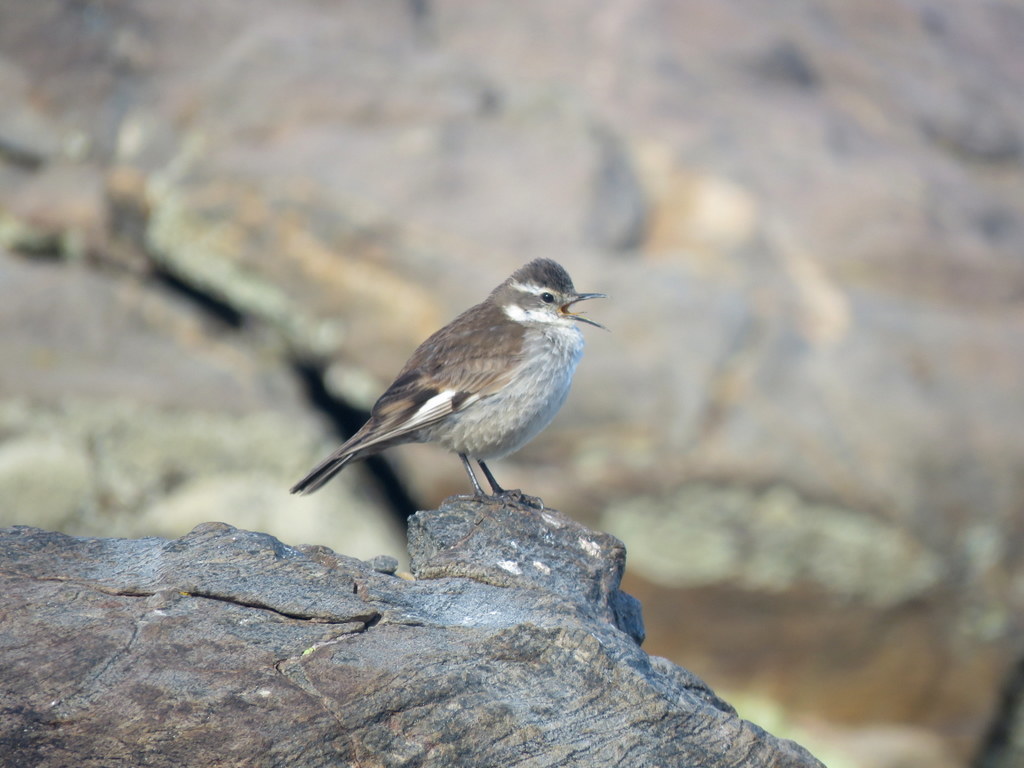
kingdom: Animalia
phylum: Chordata
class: Aves
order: Passeriformes
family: Furnariidae
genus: Cinclodes
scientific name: Cinclodes fuscus
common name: Buff-winged cinclodes
